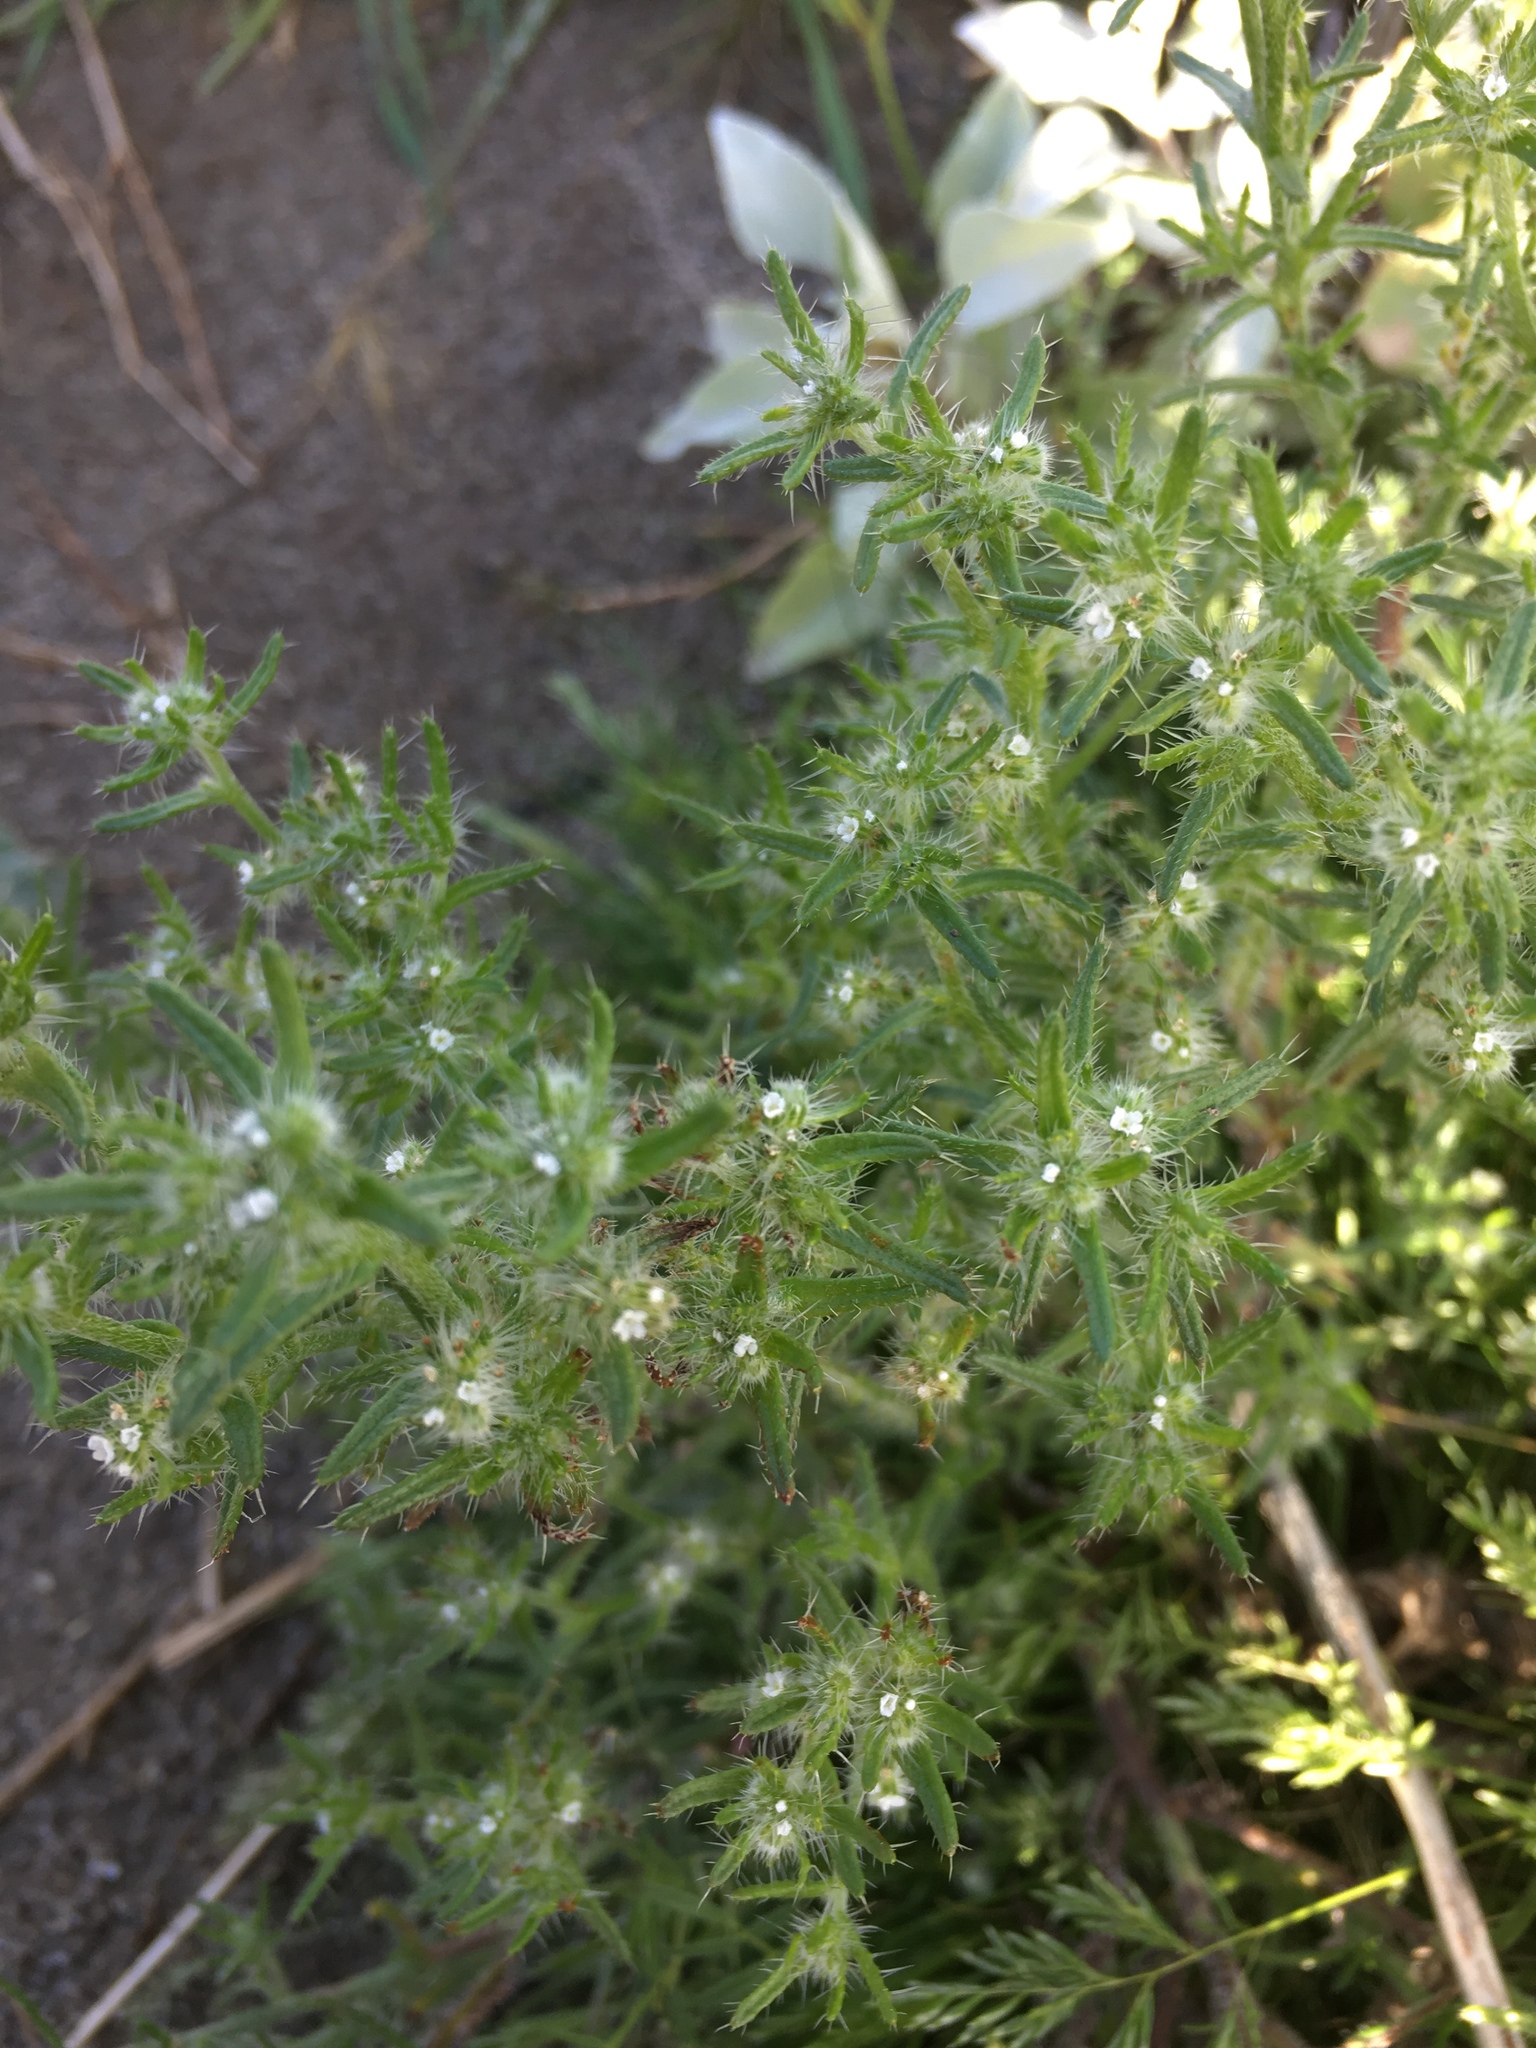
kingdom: Plantae
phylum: Tracheophyta
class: Magnoliopsida
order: Boraginales
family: Boraginaceae
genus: Cryptantha
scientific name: Cryptantha maritima
